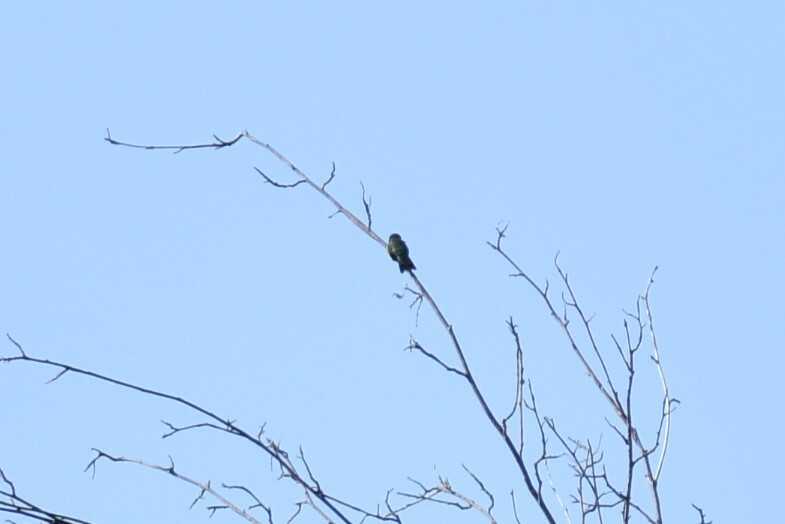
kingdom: Animalia
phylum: Chordata
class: Aves
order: Apodiformes
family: Trochilidae
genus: Selasphorus
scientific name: Selasphorus calliope
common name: Calliope hummingbird
